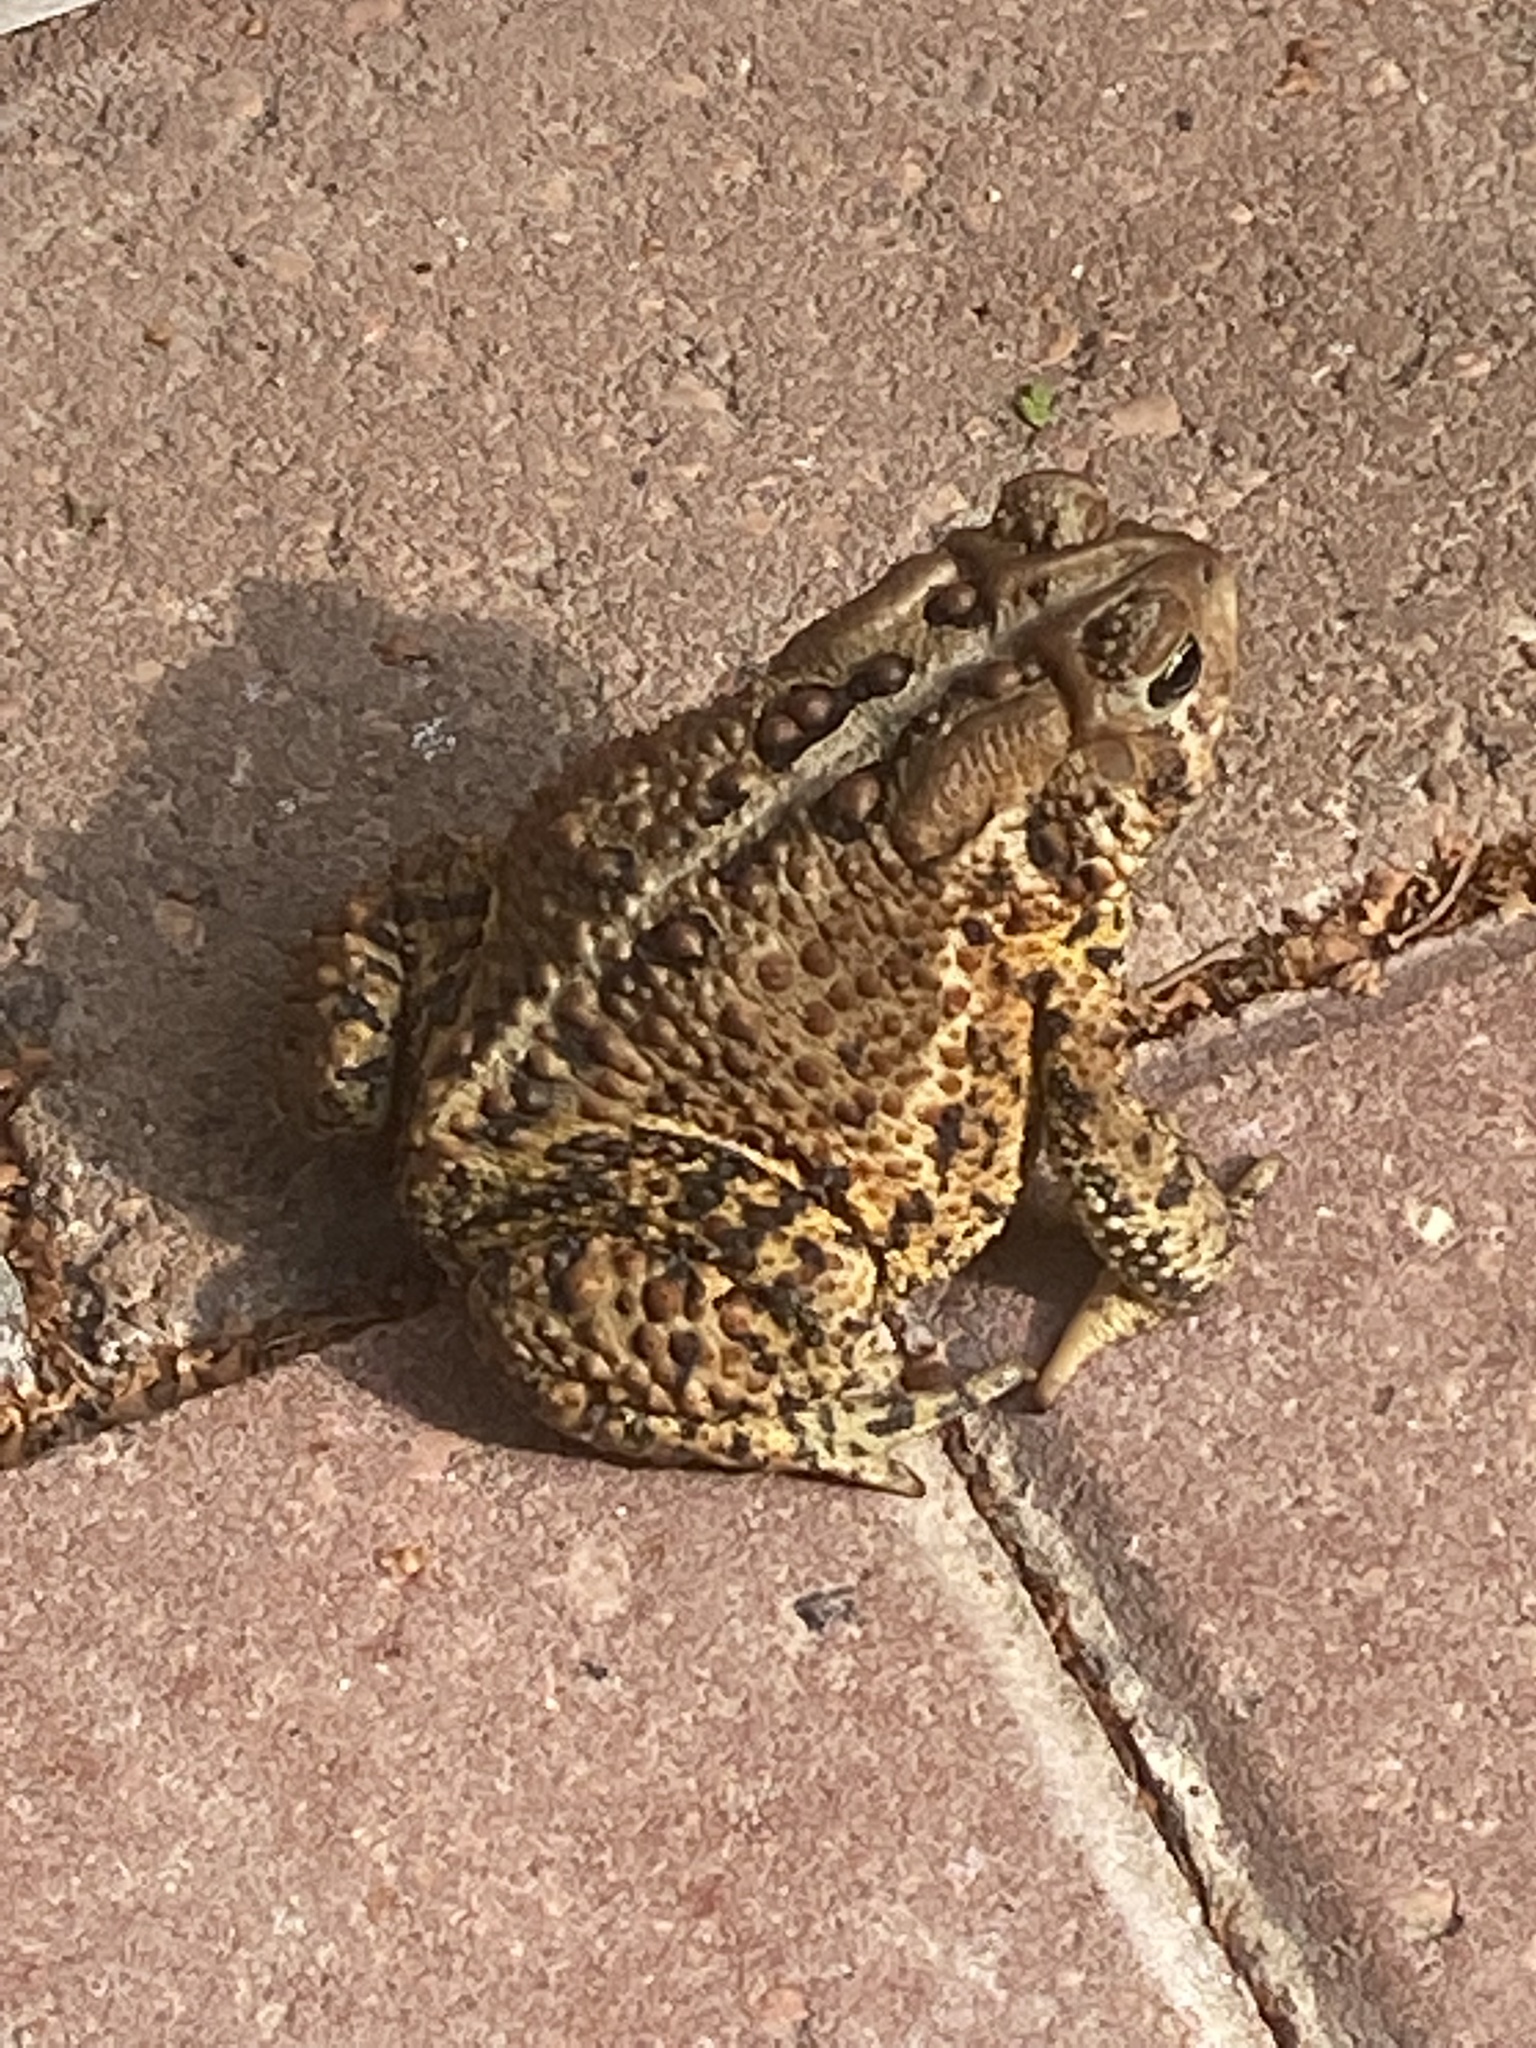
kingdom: Animalia
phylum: Chordata
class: Amphibia
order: Anura
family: Bufonidae
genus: Anaxyrus
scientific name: Anaxyrus americanus
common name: American toad
